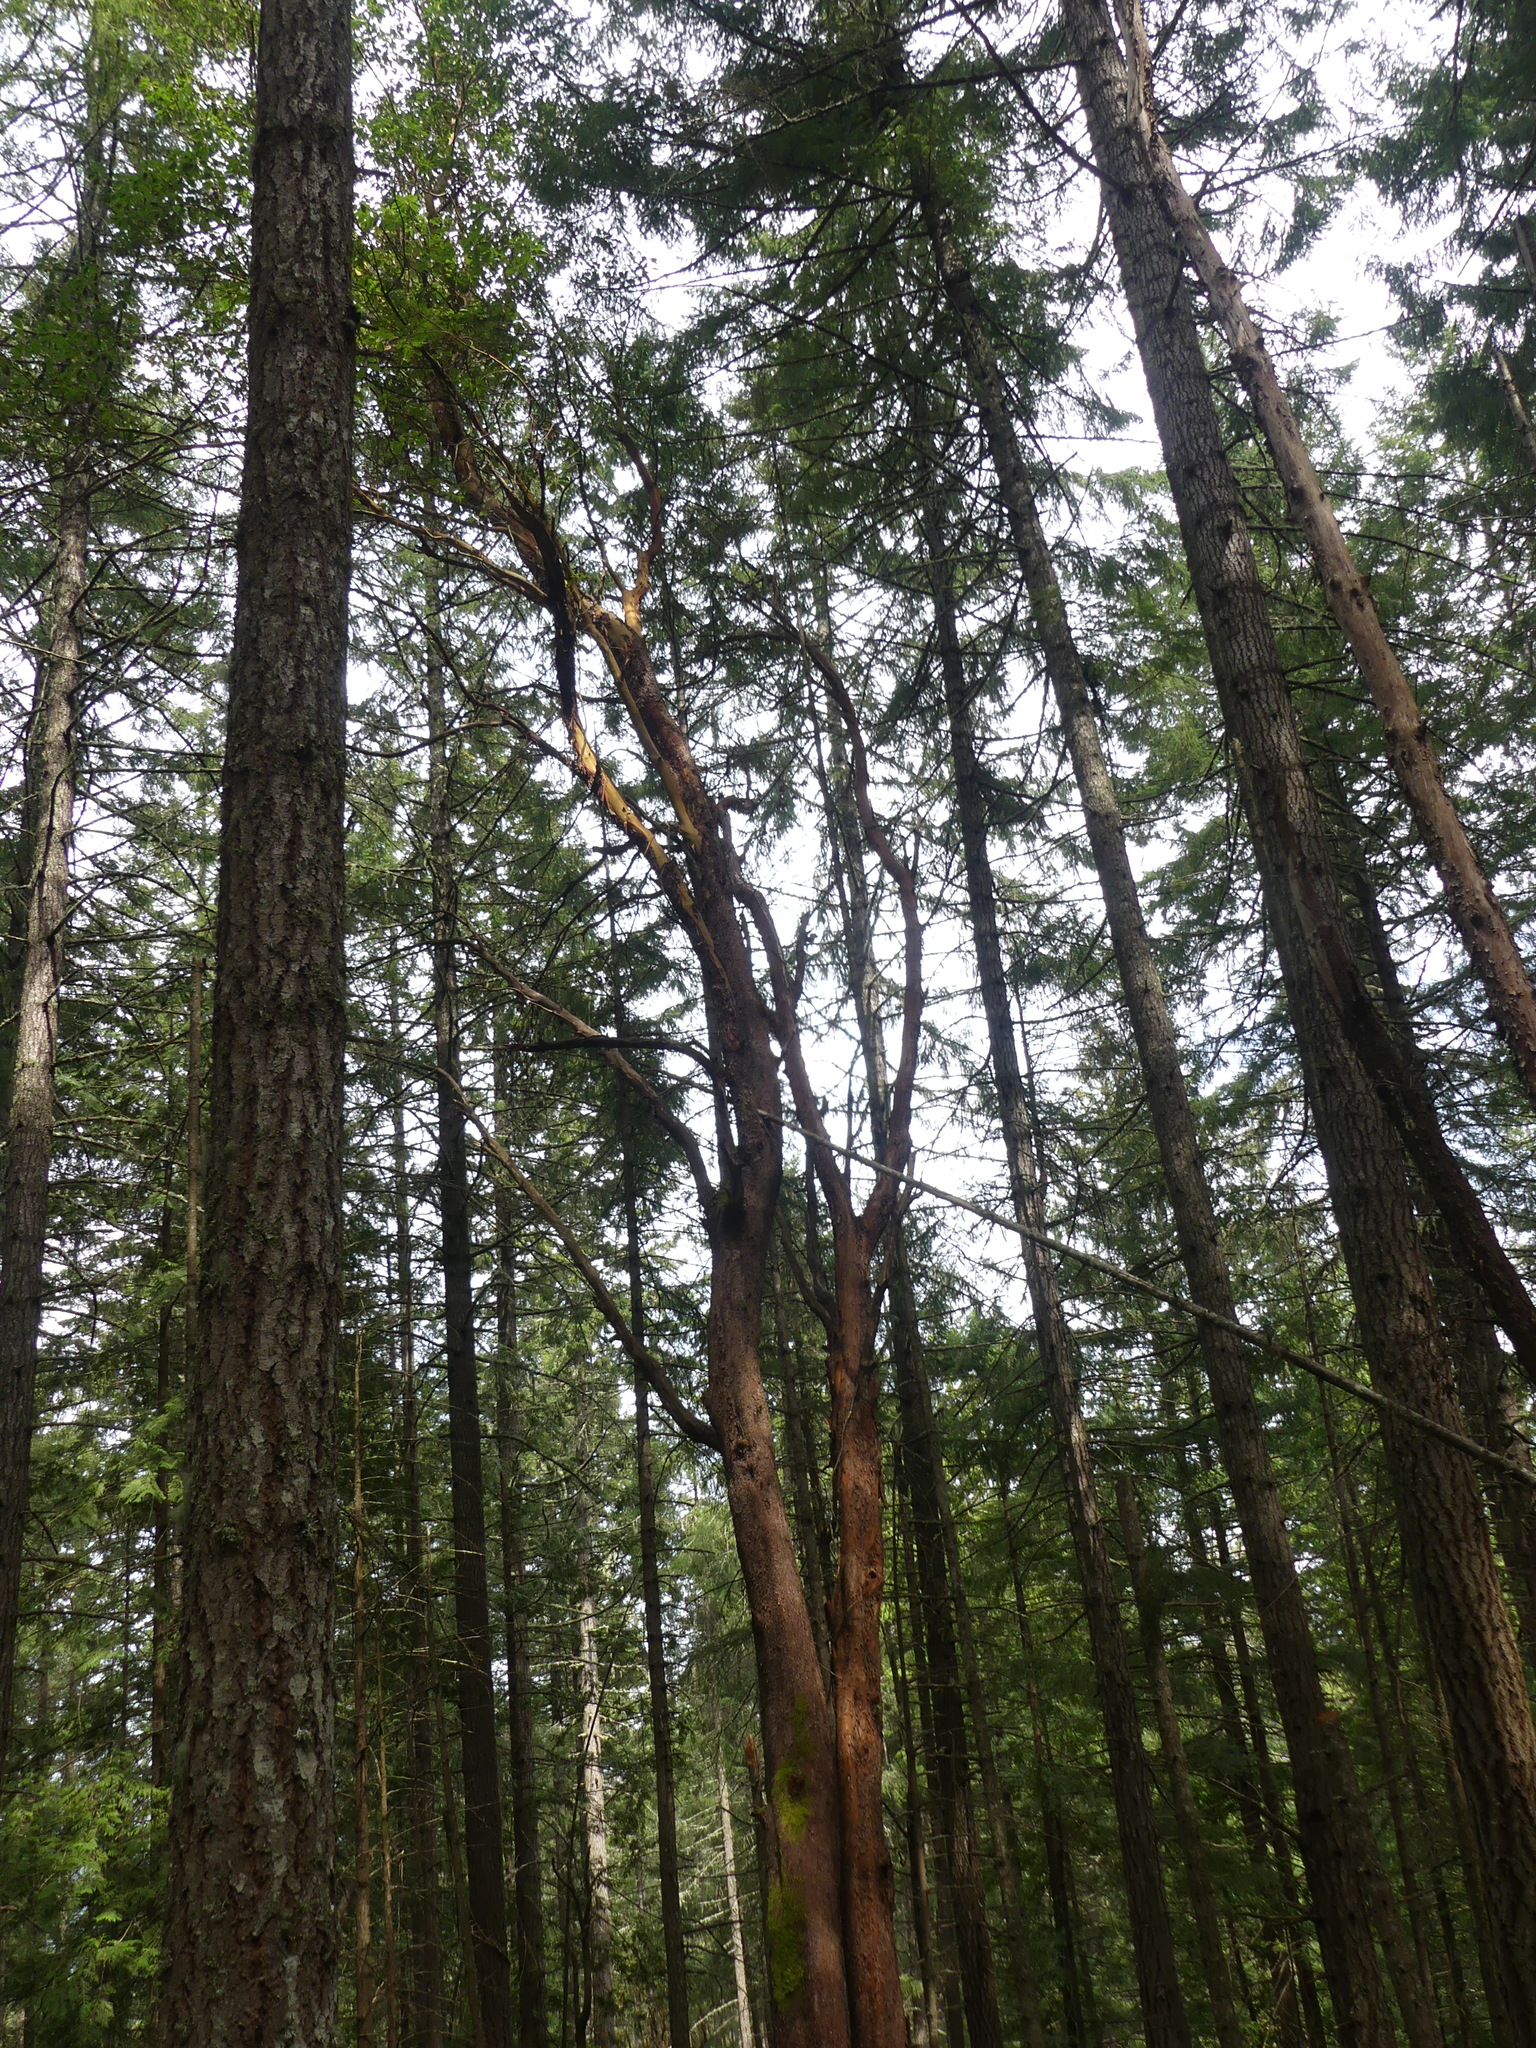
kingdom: Plantae
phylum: Tracheophyta
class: Magnoliopsida
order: Ericales
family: Ericaceae
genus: Arbutus
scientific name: Arbutus menziesii
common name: Pacific madrone
